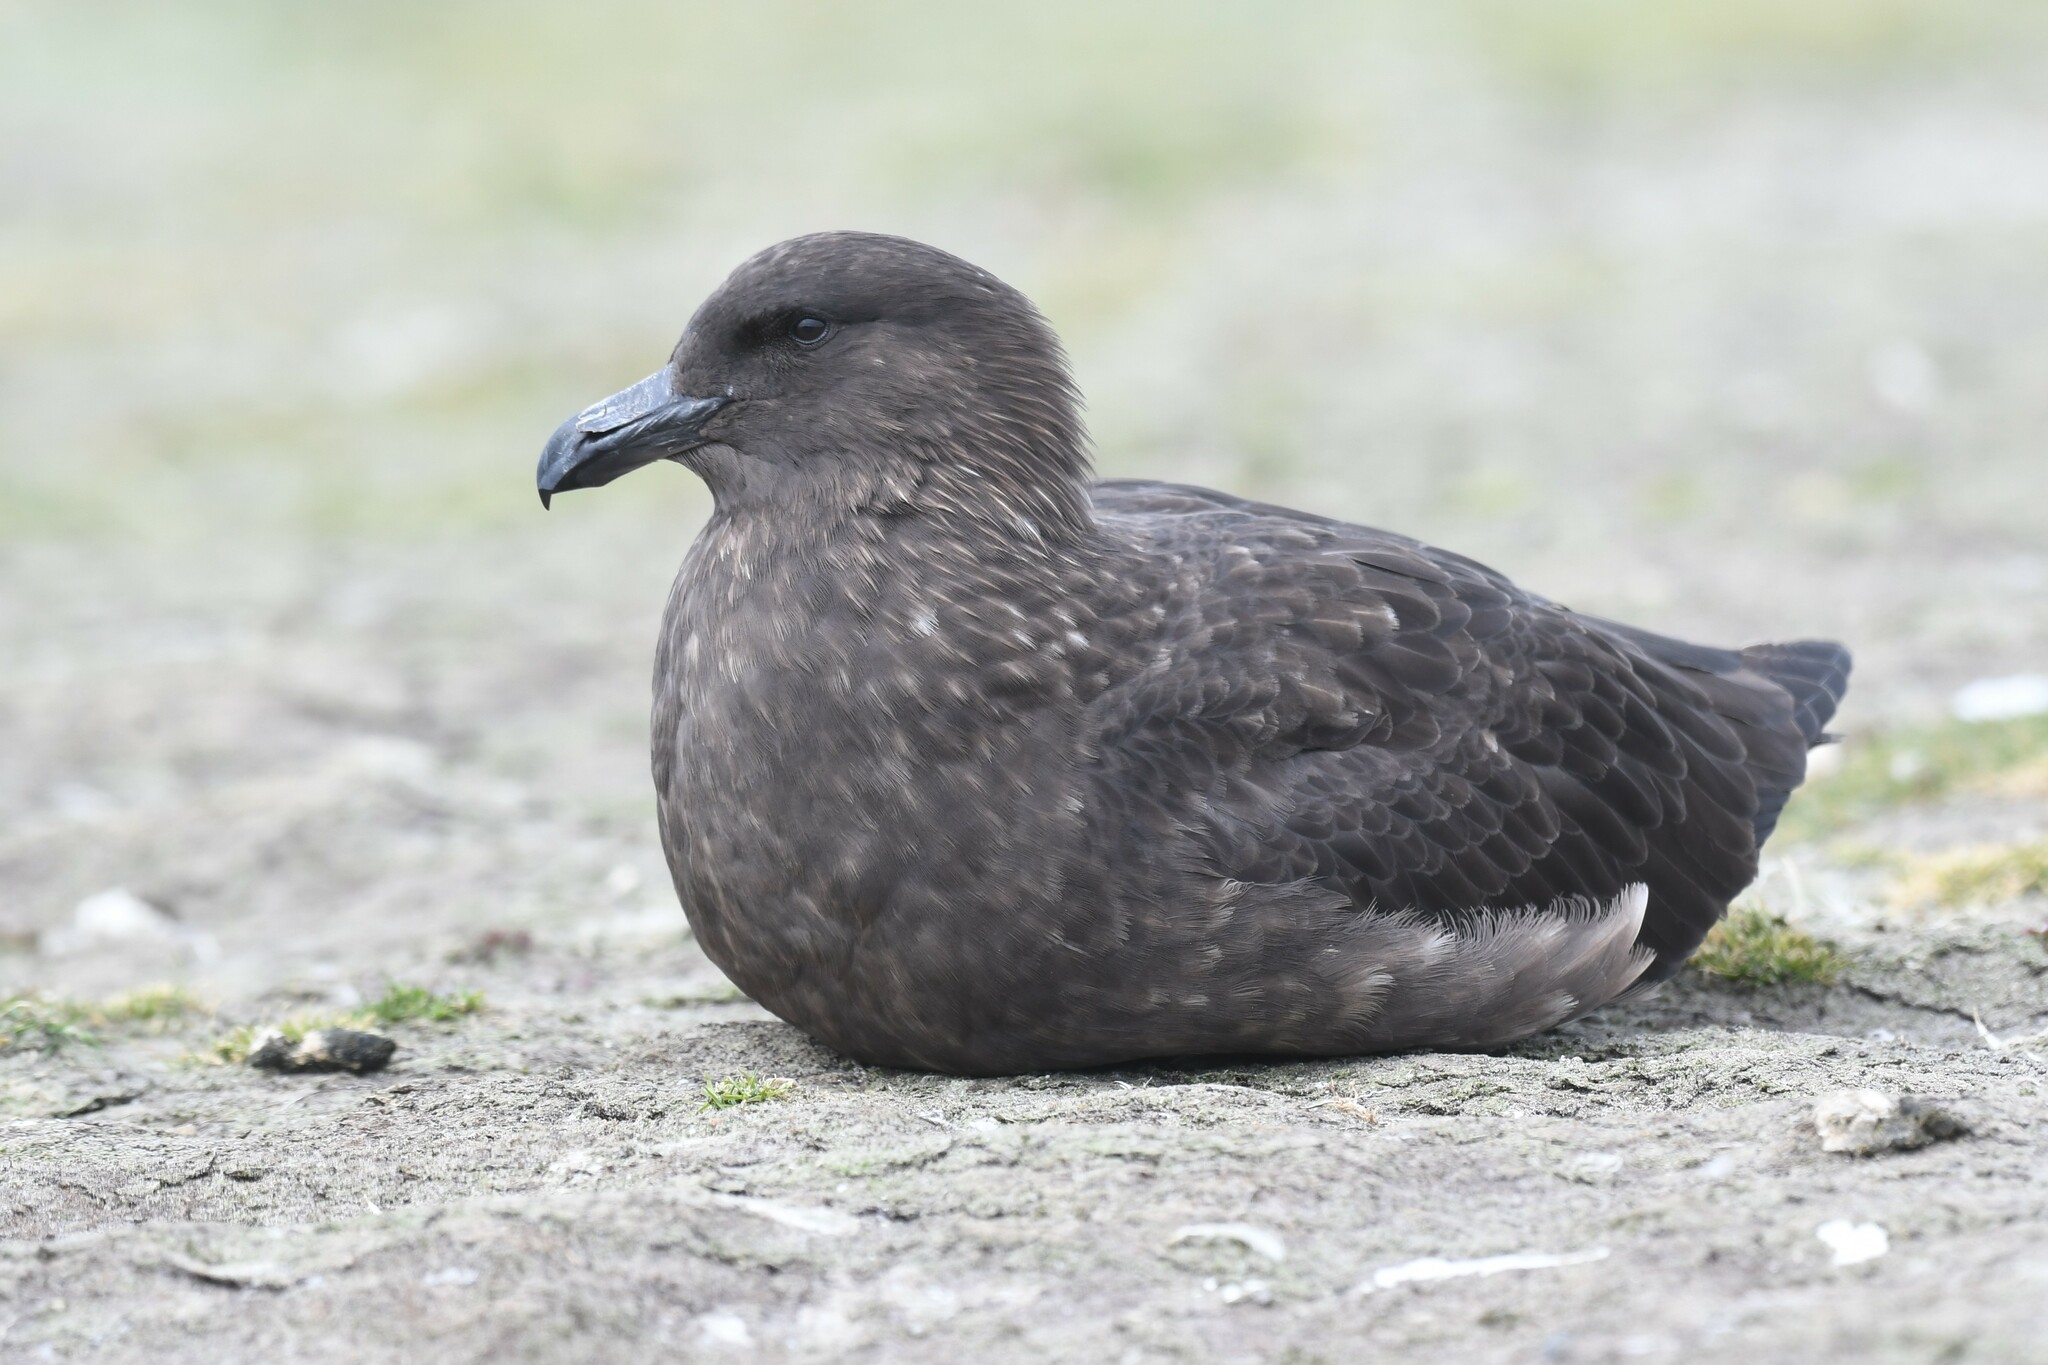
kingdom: Animalia
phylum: Chordata
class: Aves
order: Charadriiformes
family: Stercorariidae
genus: Stercorarius
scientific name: Stercorarius antarcticus
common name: Brown skua
